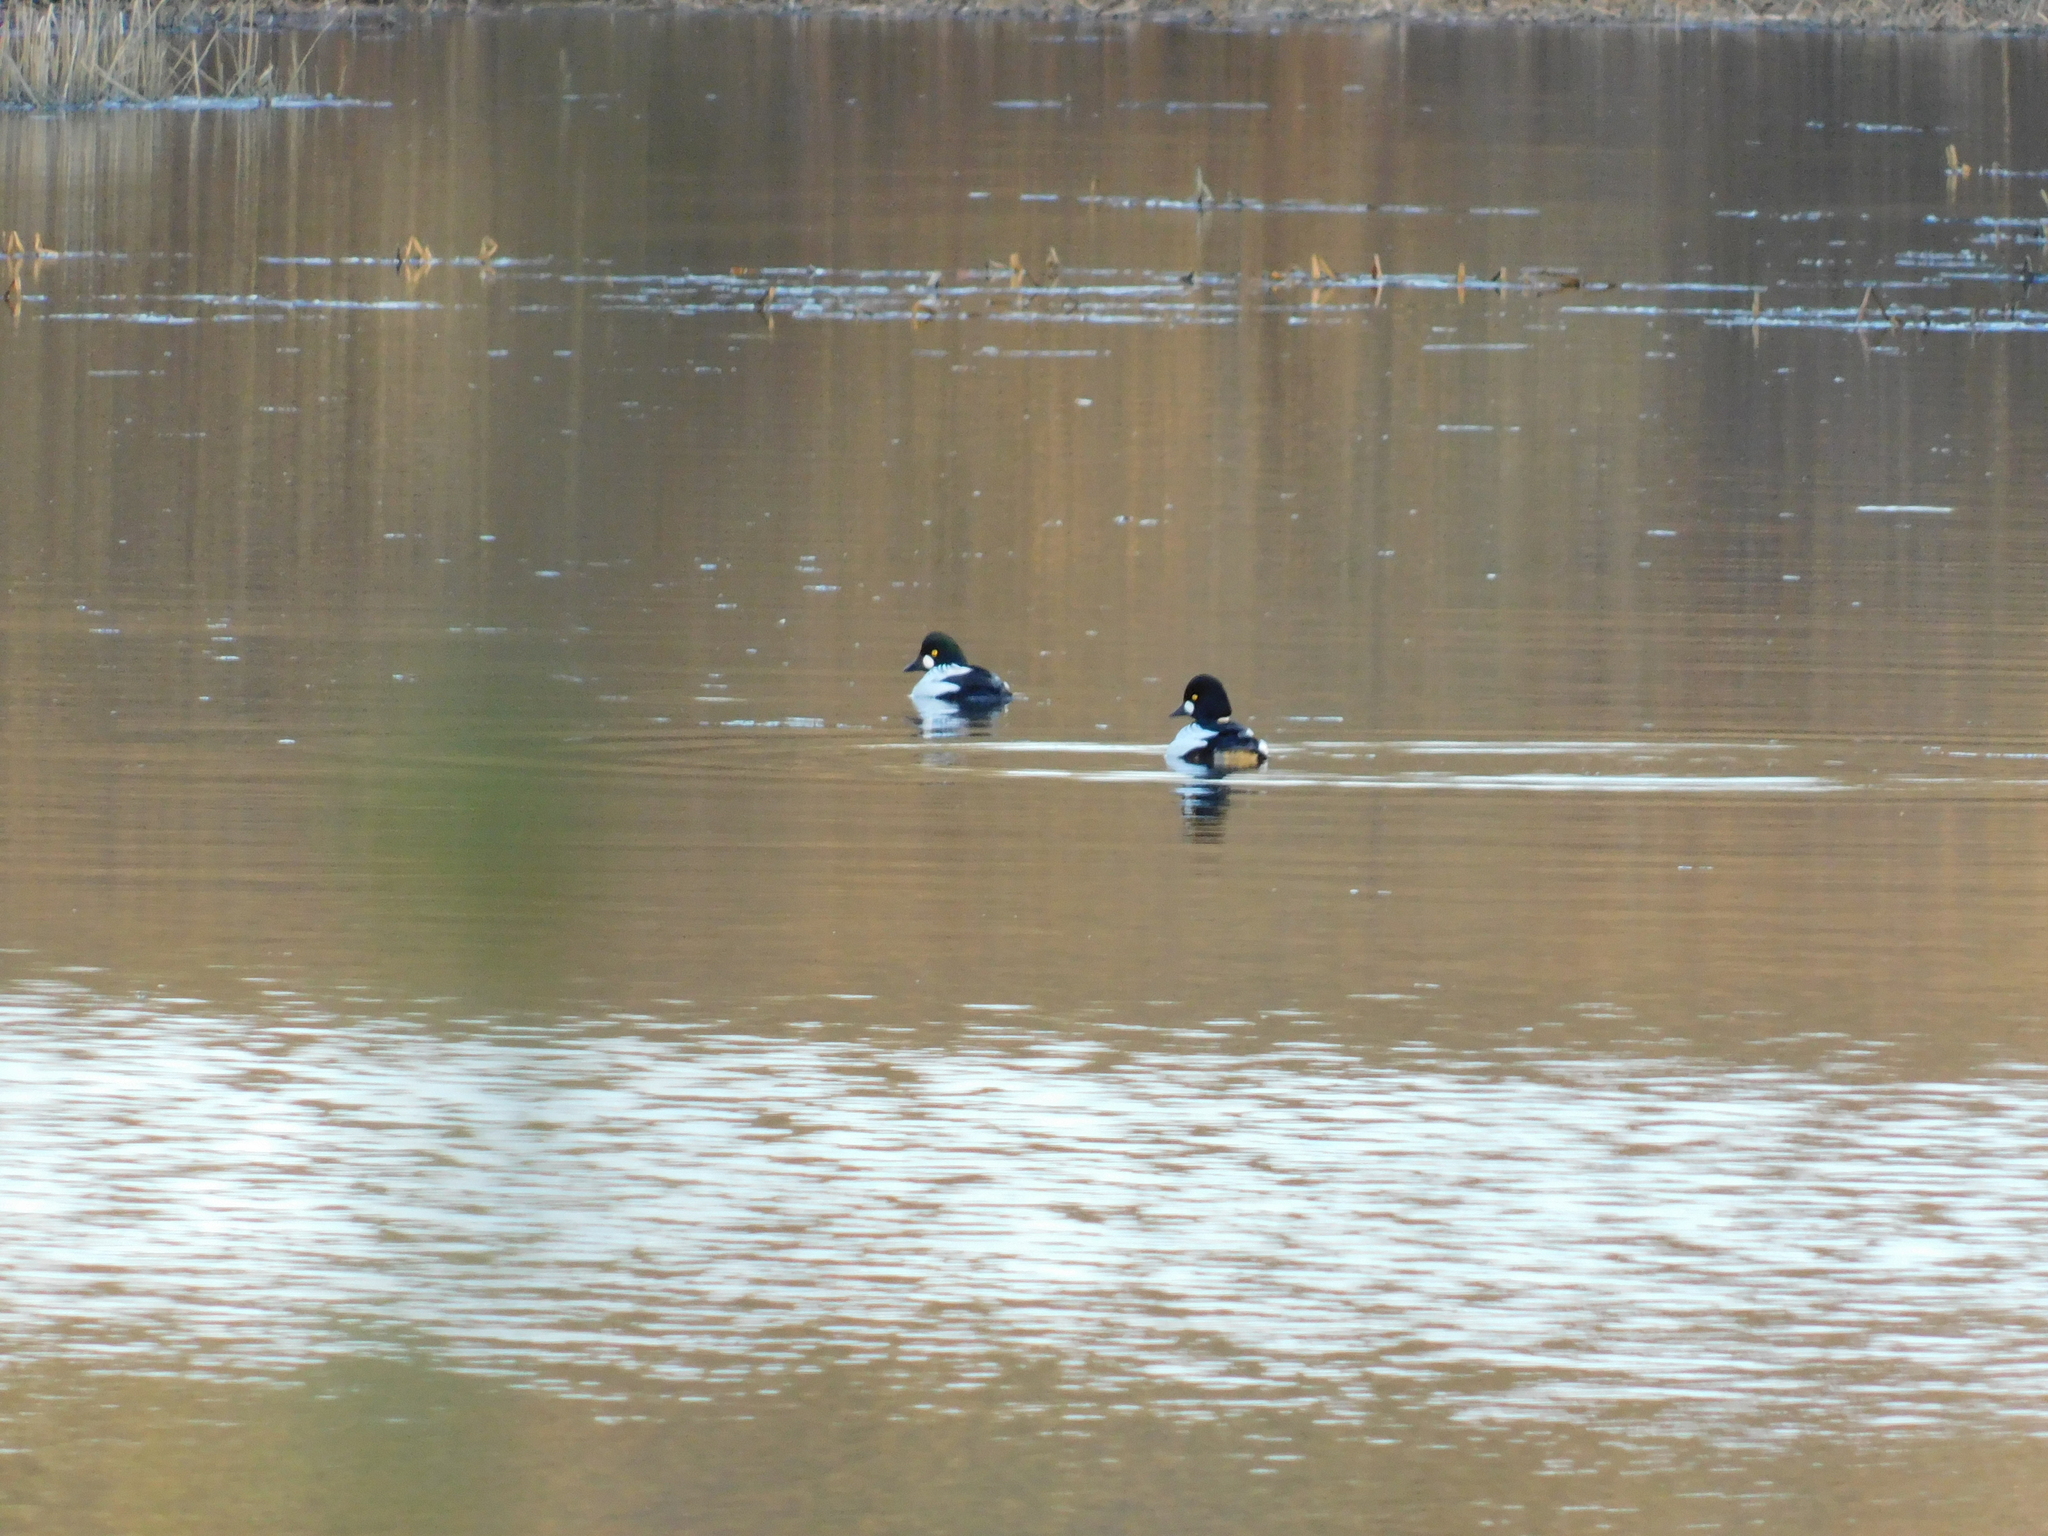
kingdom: Animalia
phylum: Chordata
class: Aves
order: Anseriformes
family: Anatidae
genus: Bucephala
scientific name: Bucephala clangula
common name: Common goldeneye
